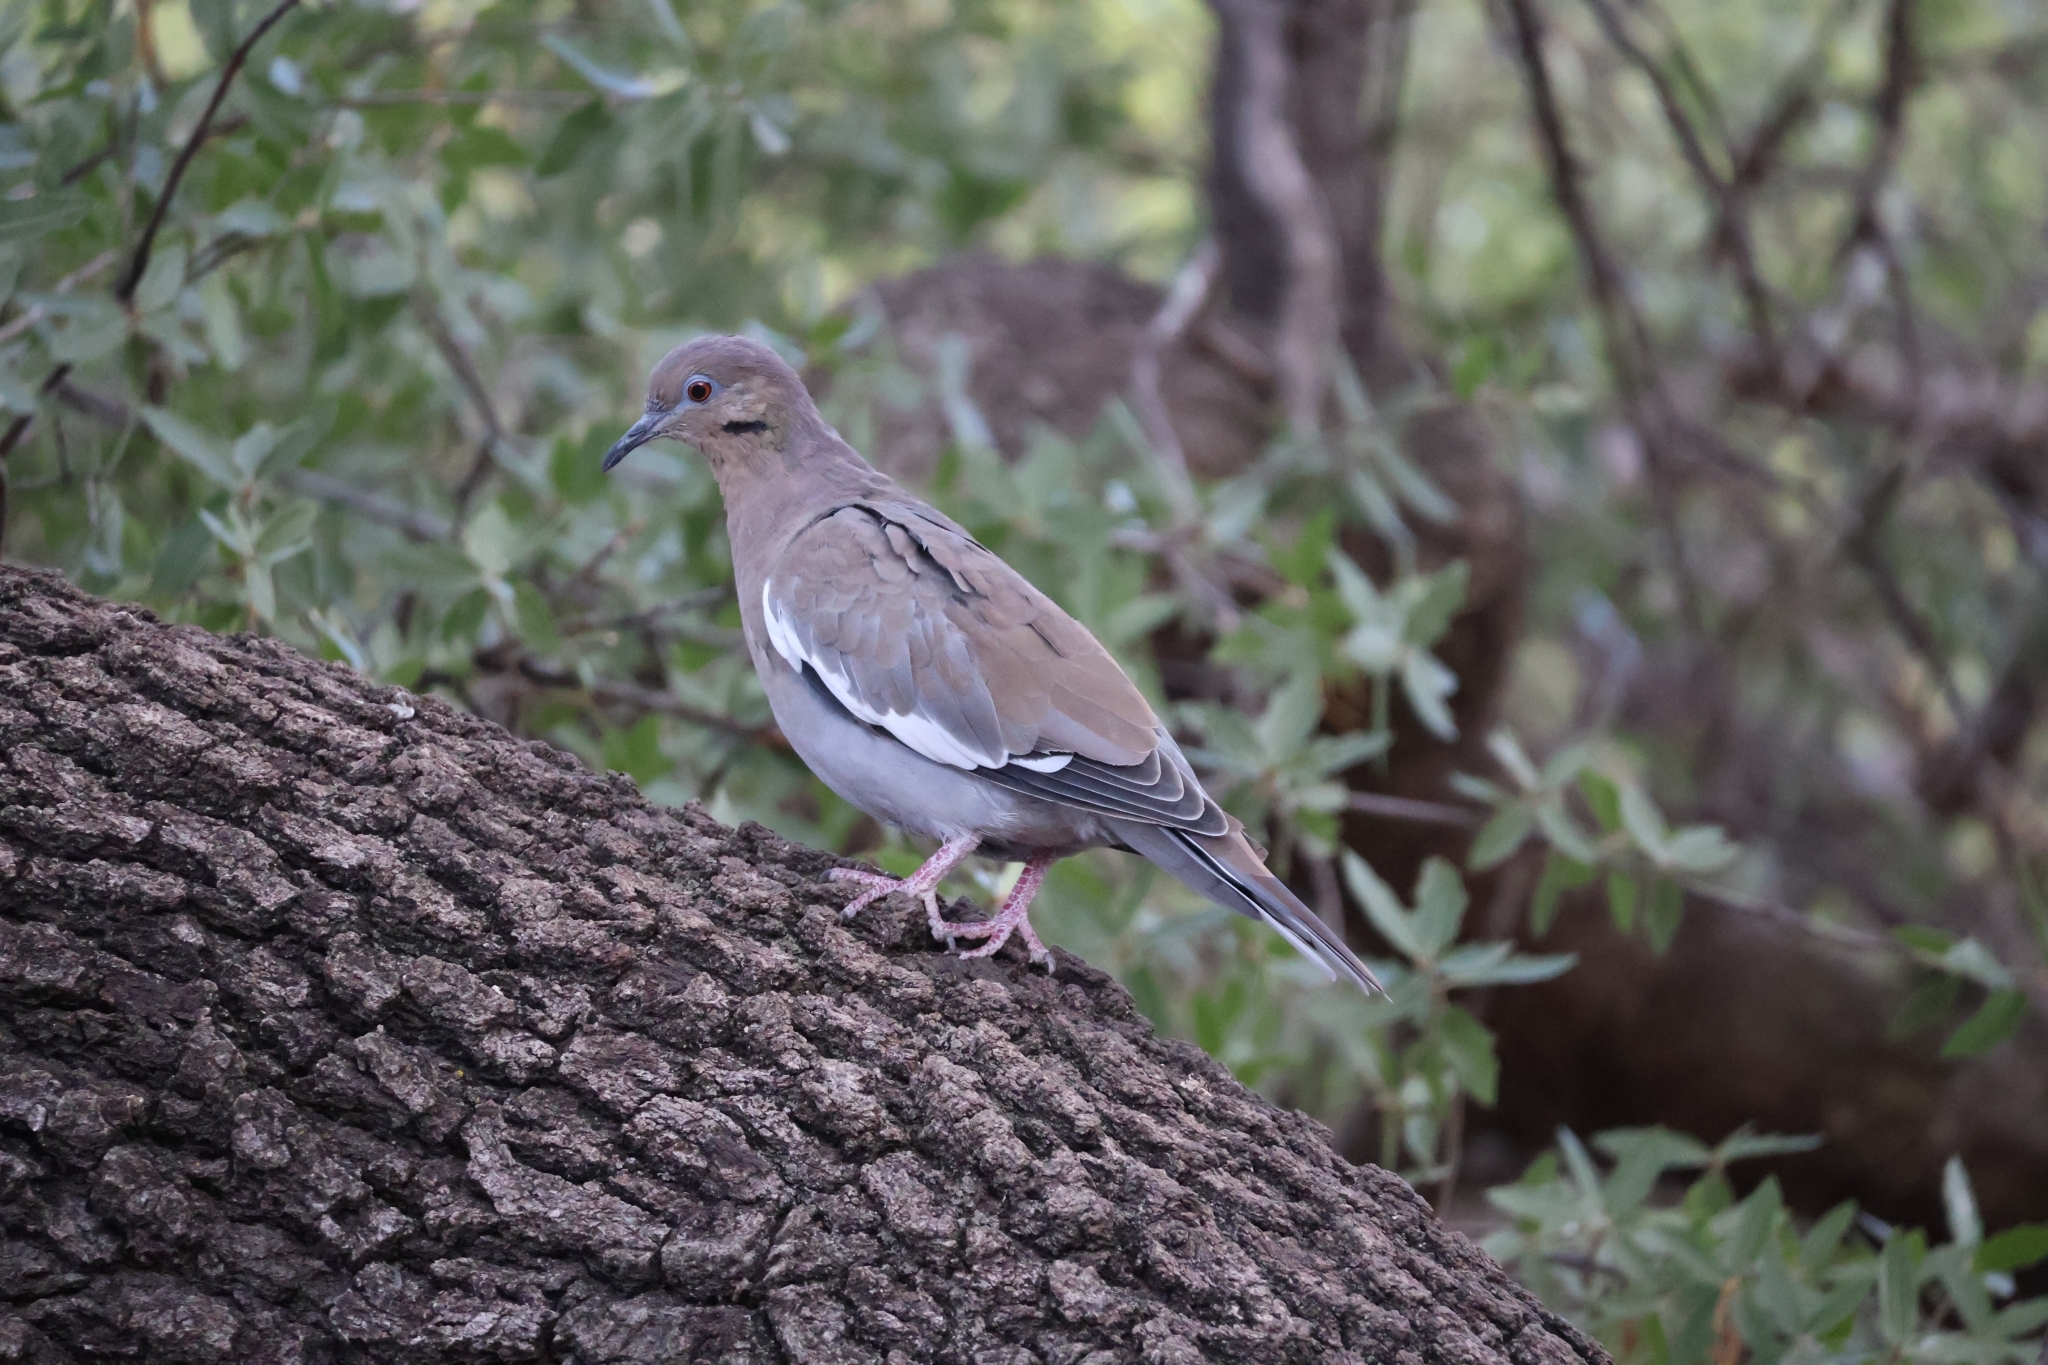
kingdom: Animalia
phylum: Chordata
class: Aves
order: Columbiformes
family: Columbidae
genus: Zenaida
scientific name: Zenaida asiatica
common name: White-winged dove
